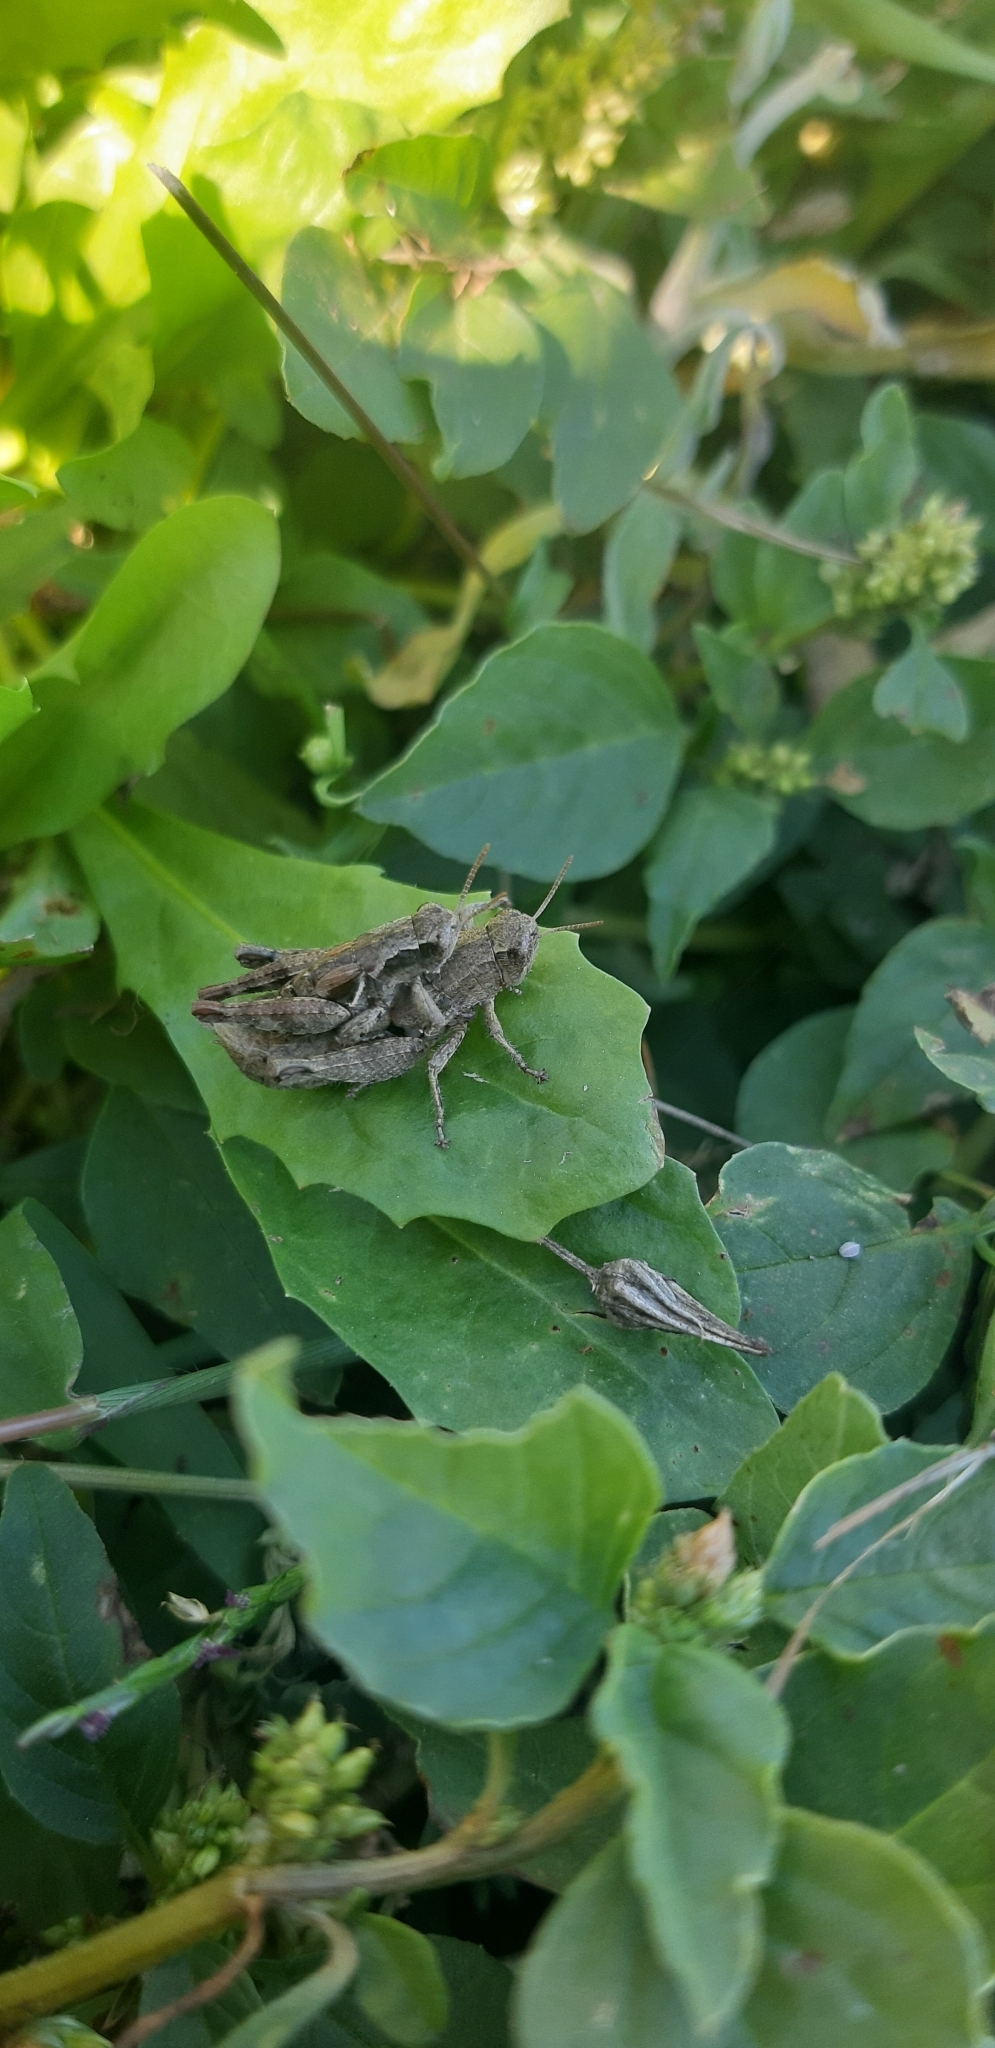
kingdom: Animalia
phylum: Arthropoda
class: Insecta
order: Orthoptera
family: Acrididae
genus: Pezotettix
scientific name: Pezotettix giornae
